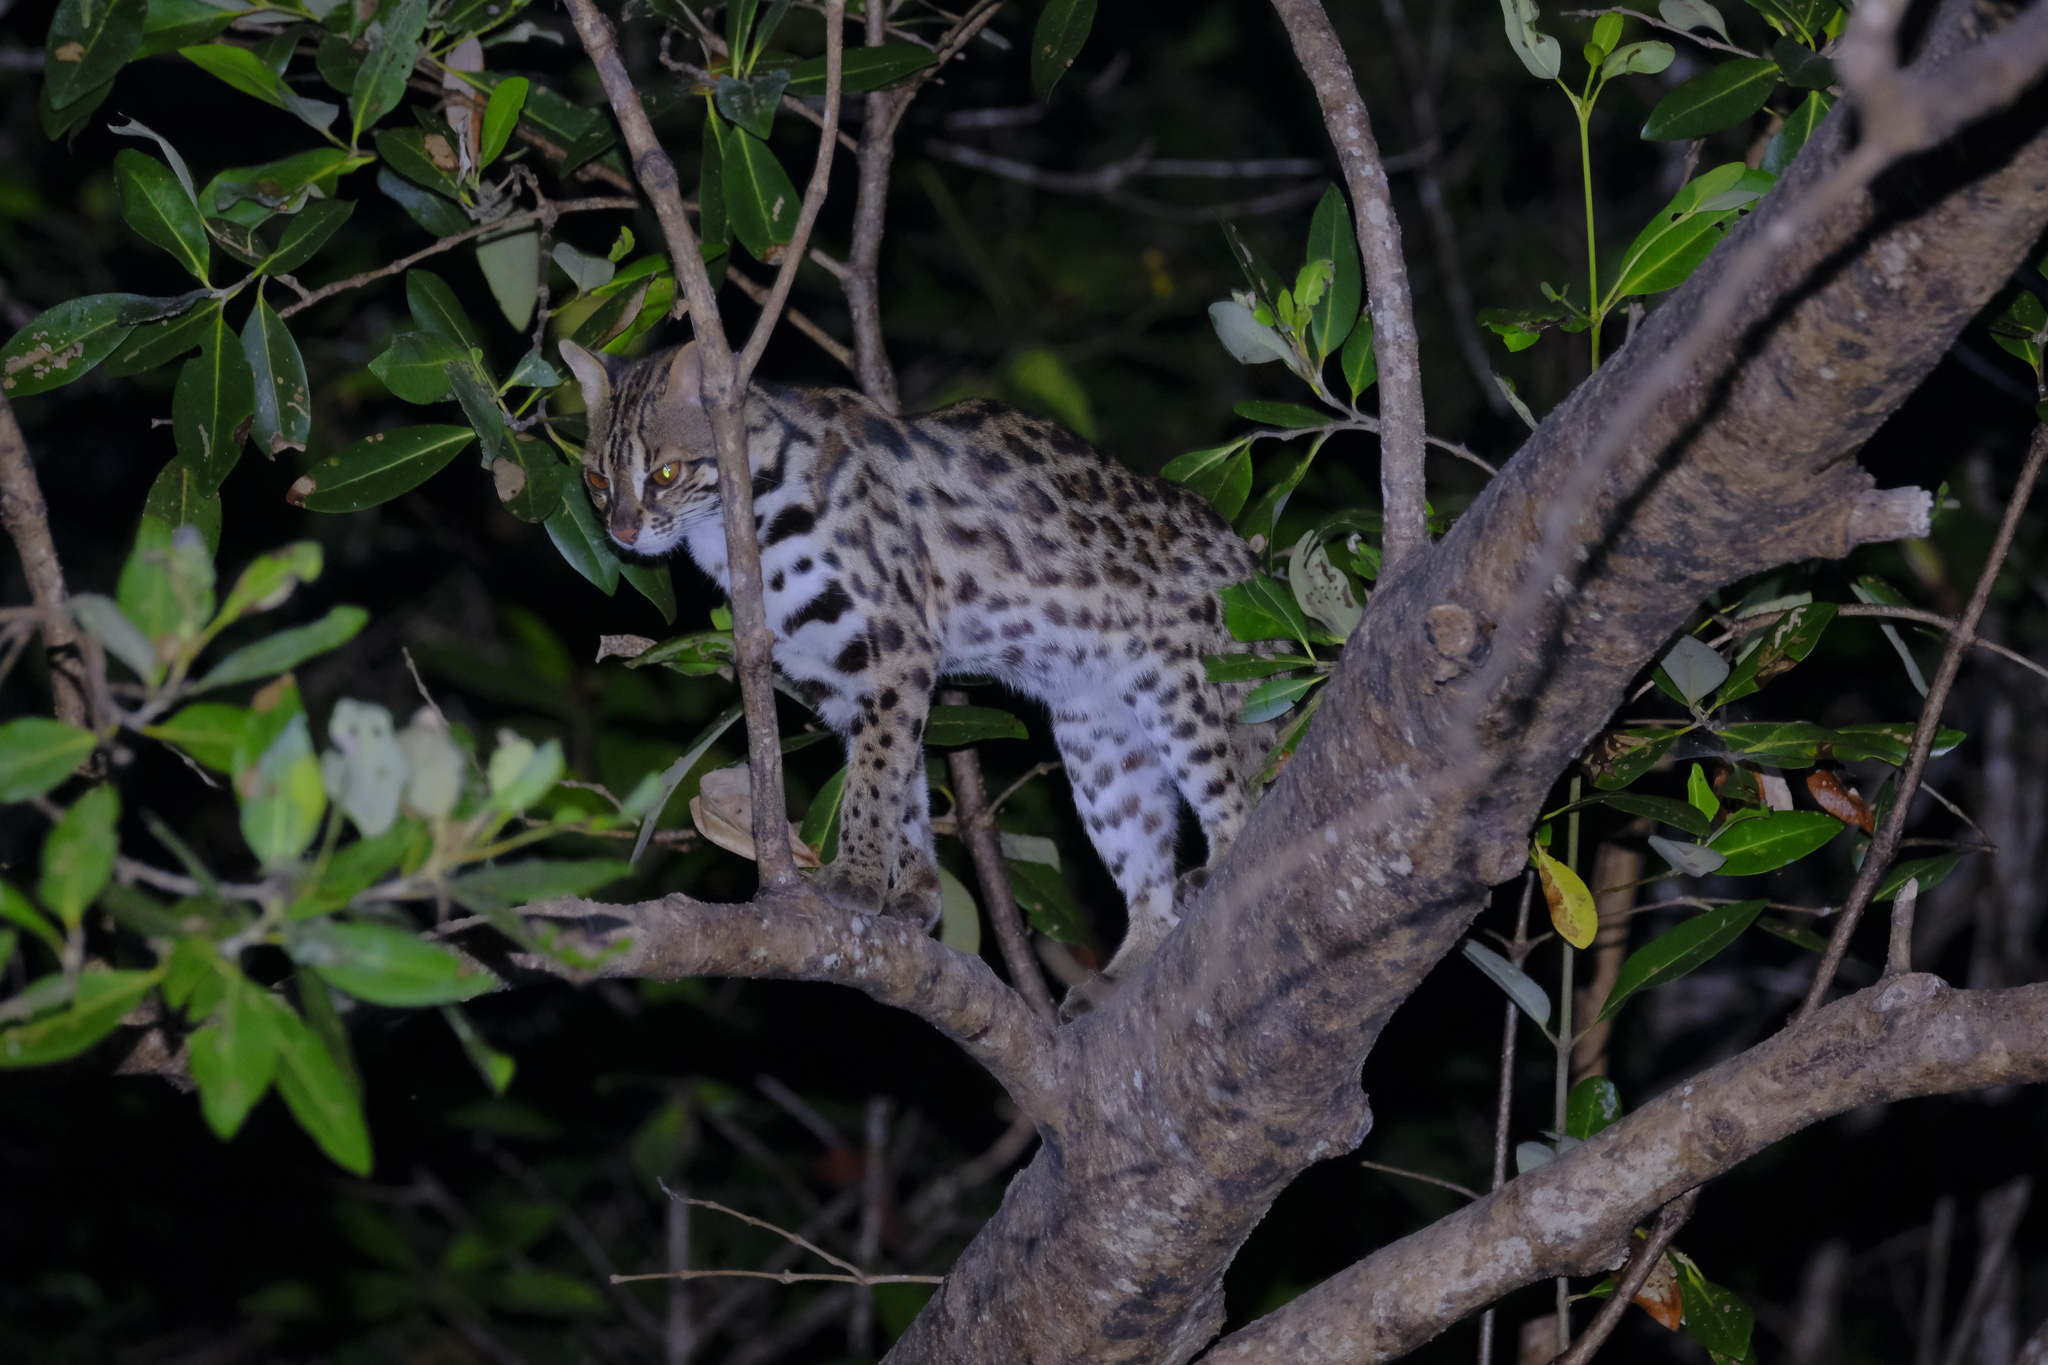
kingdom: Animalia
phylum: Chordata
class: Mammalia
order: Carnivora
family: Felidae
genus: Prionailurus
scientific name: Prionailurus bengalensis
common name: Leopard cat
